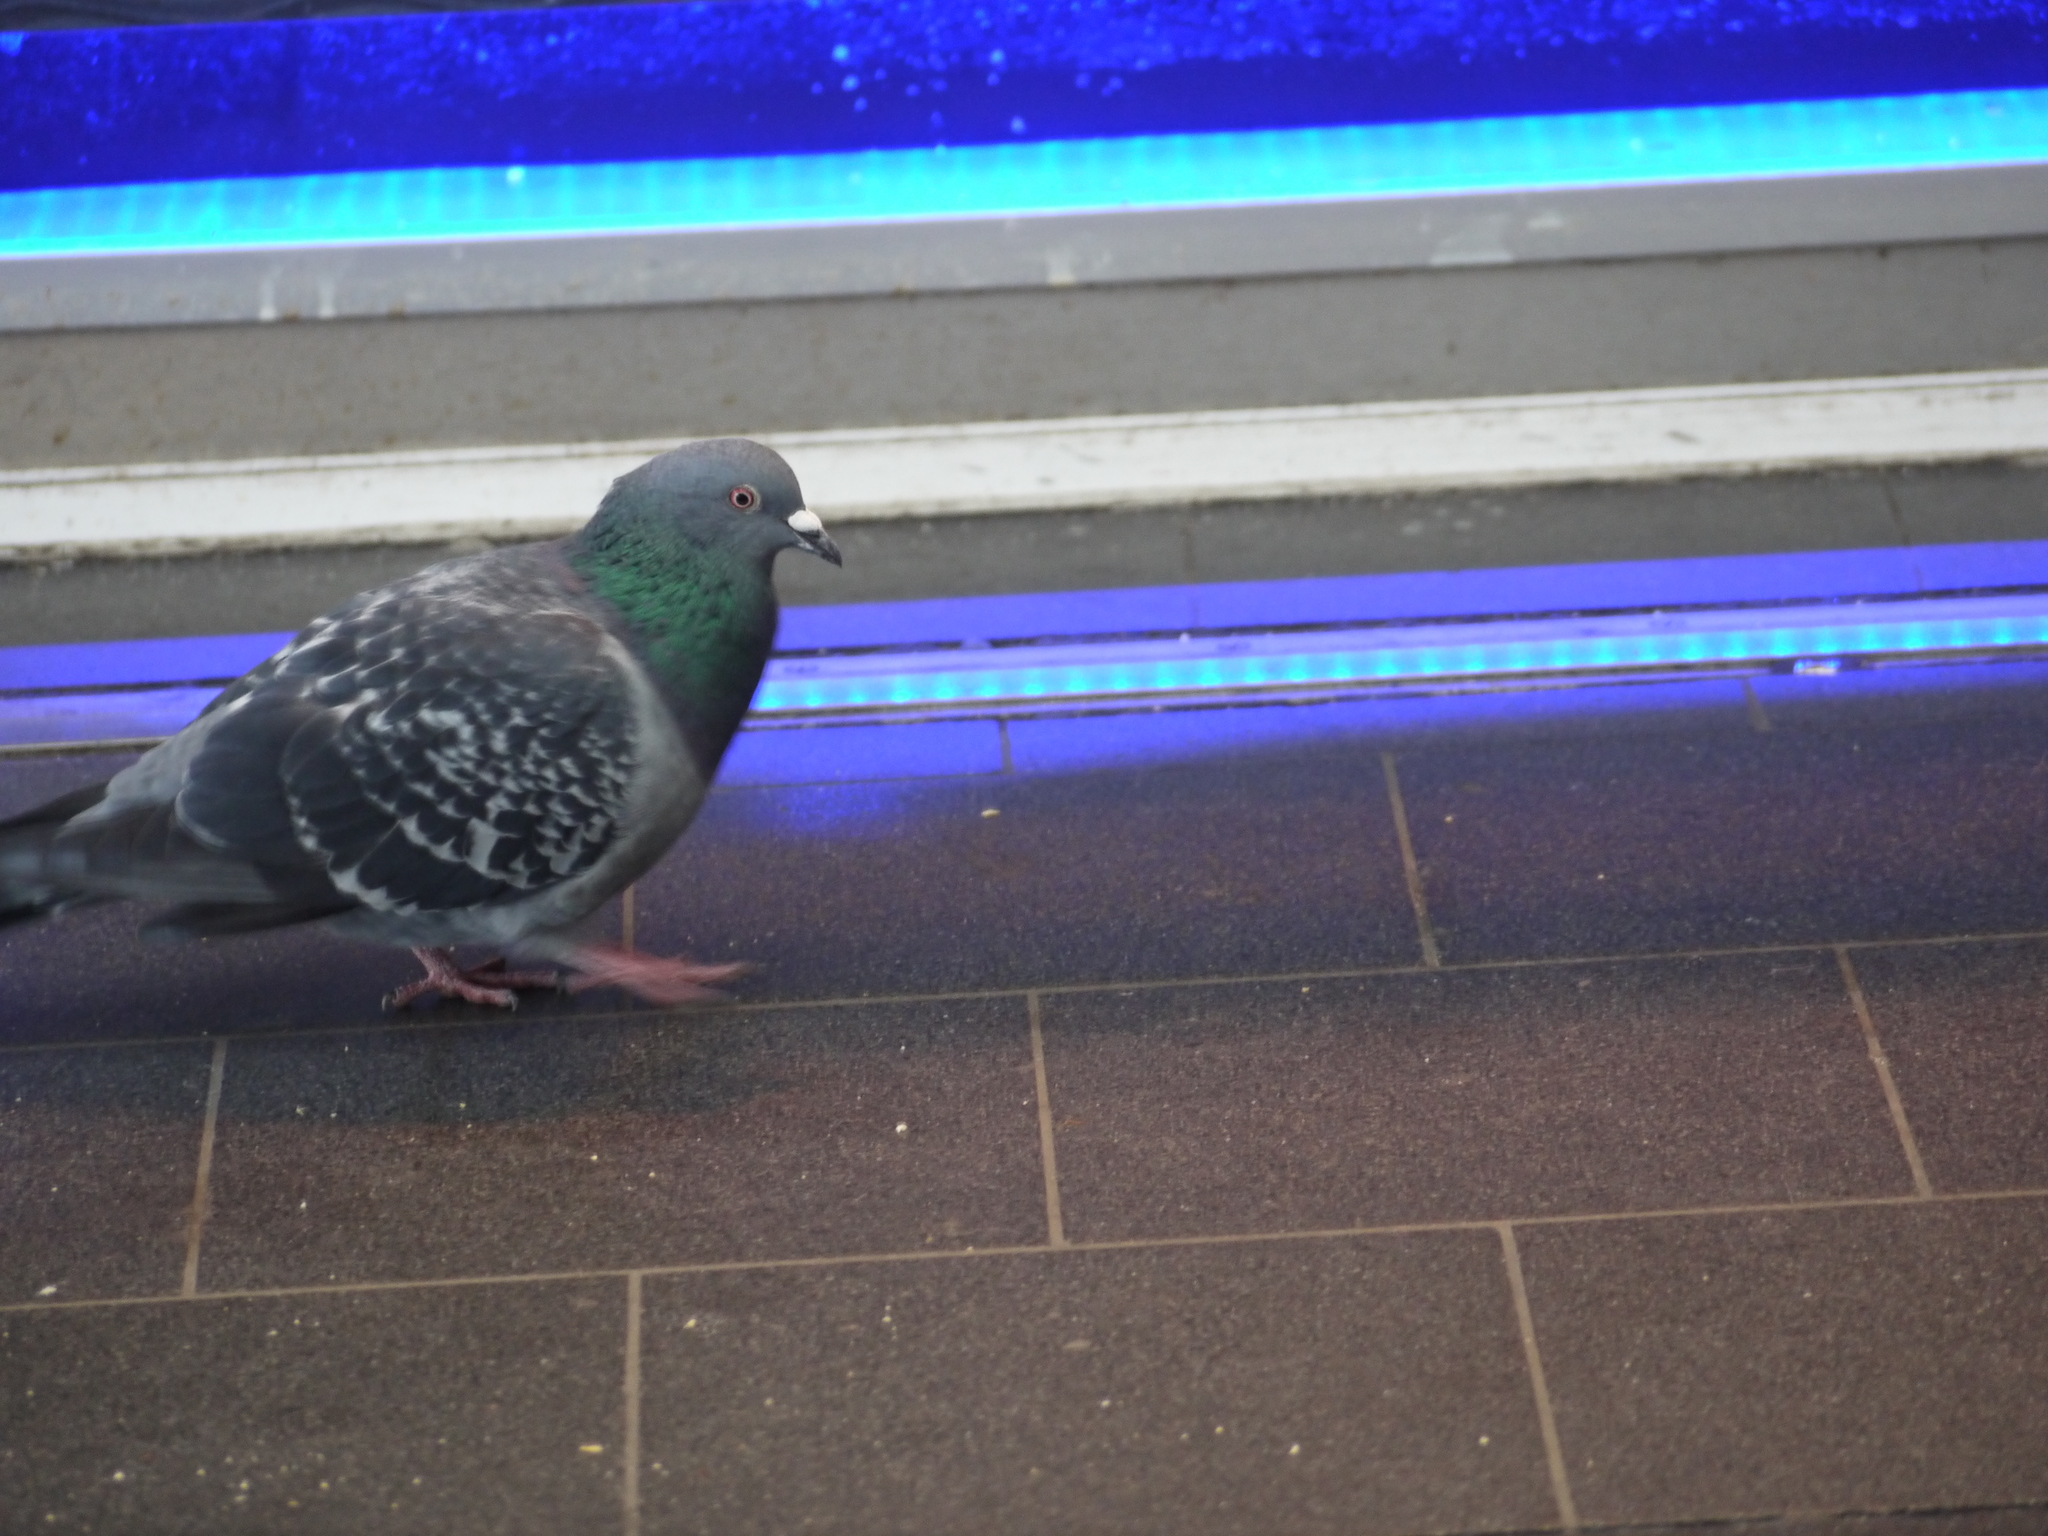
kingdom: Animalia
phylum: Chordata
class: Aves
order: Columbiformes
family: Columbidae
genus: Columba
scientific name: Columba livia
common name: Rock pigeon
